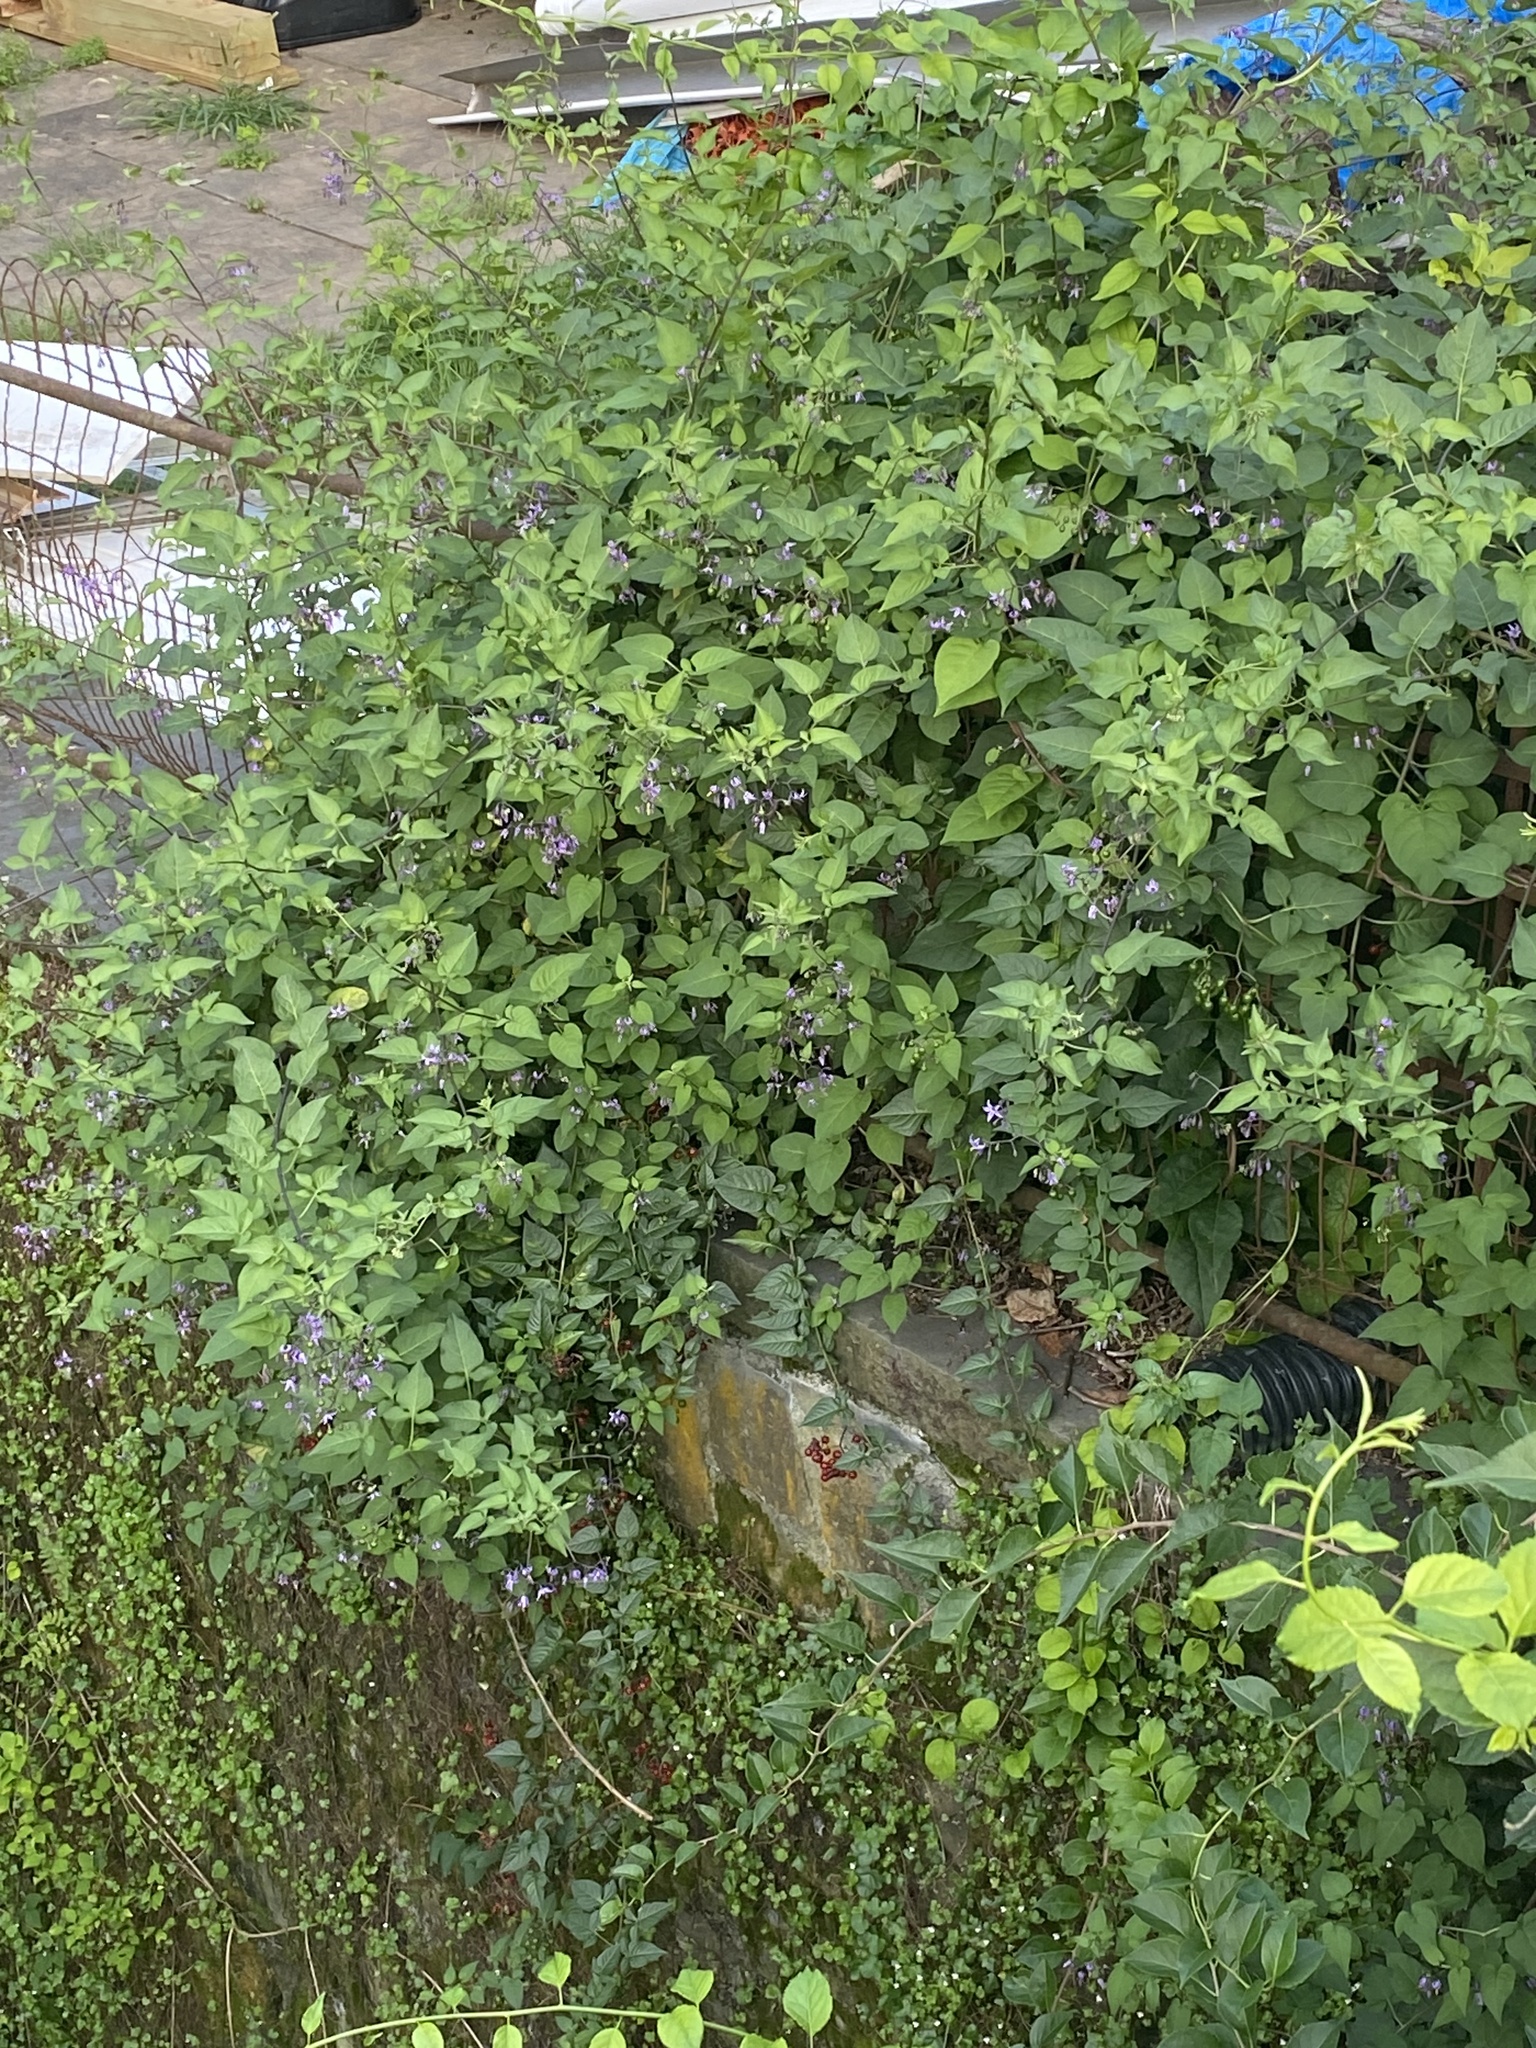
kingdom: Plantae
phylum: Tracheophyta
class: Magnoliopsida
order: Solanales
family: Solanaceae
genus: Solanum
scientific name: Solanum dulcamara
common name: Climbing nightshade
